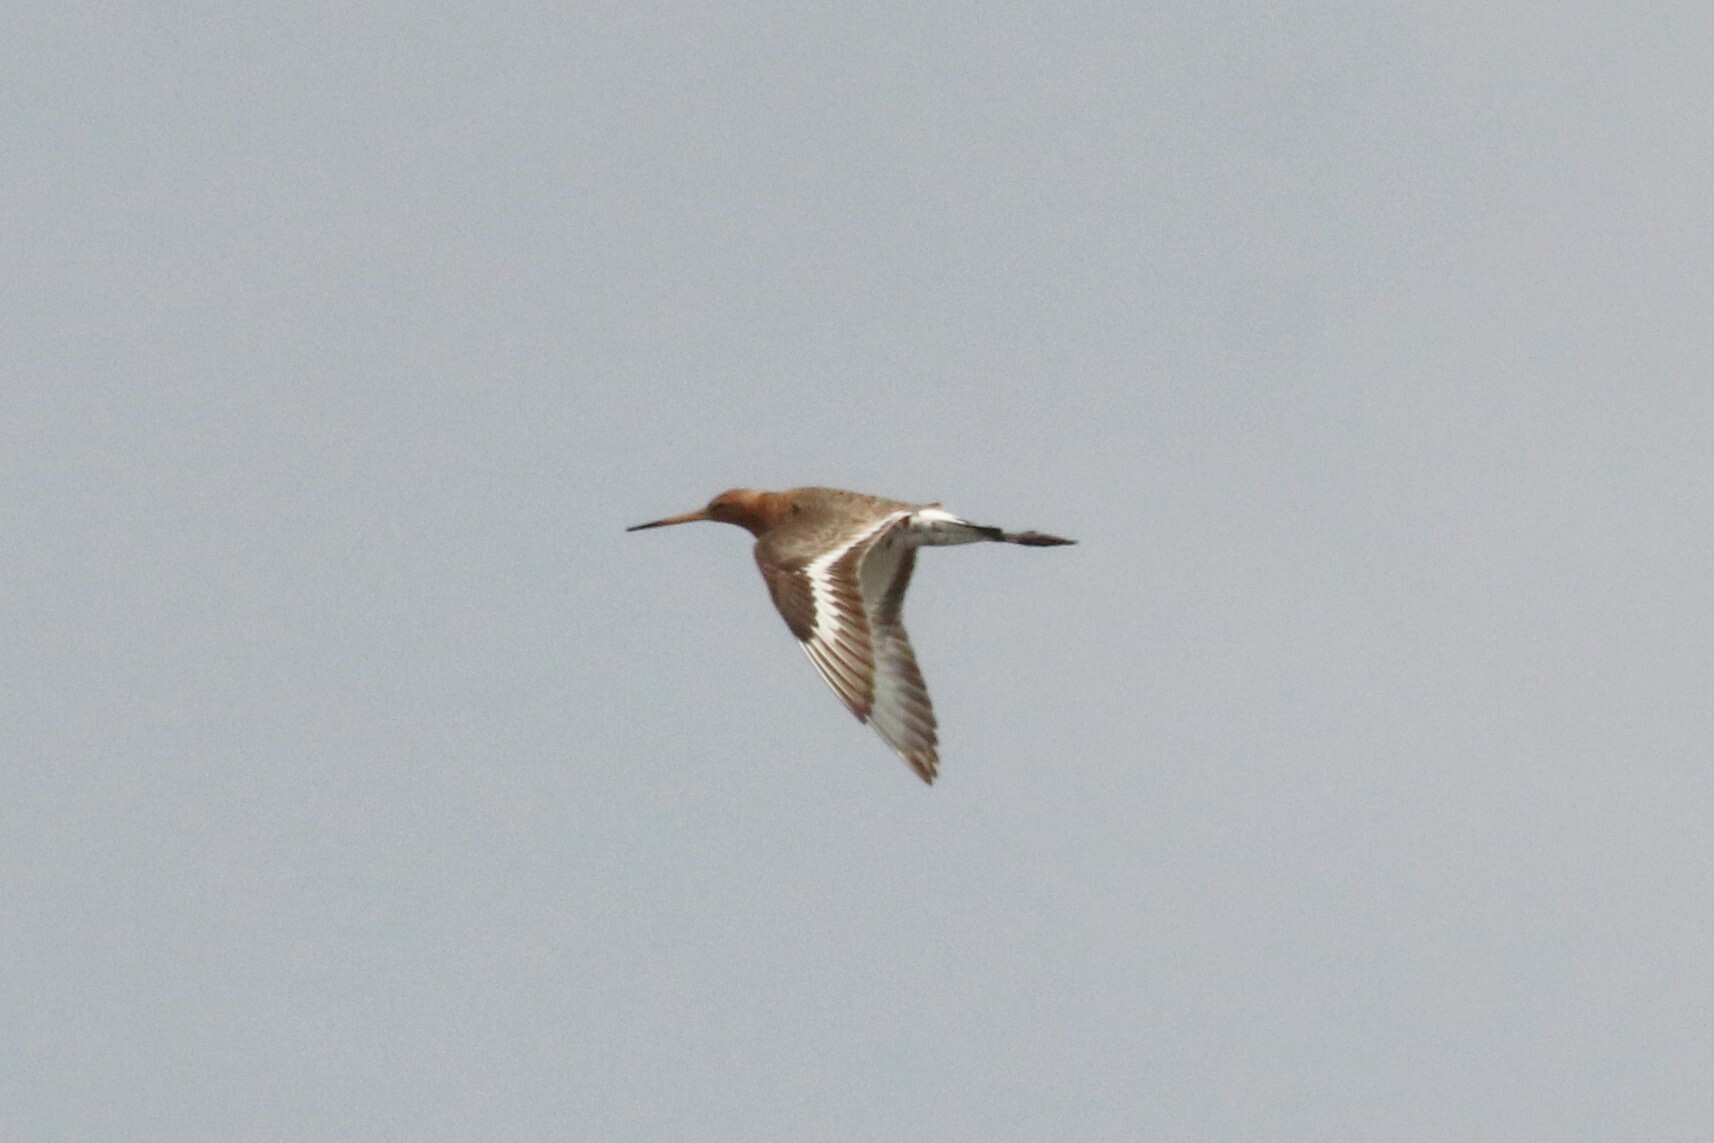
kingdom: Animalia
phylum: Chordata
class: Aves
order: Charadriiformes
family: Scolopacidae
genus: Limosa
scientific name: Limosa limosa
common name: Black-tailed godwit
